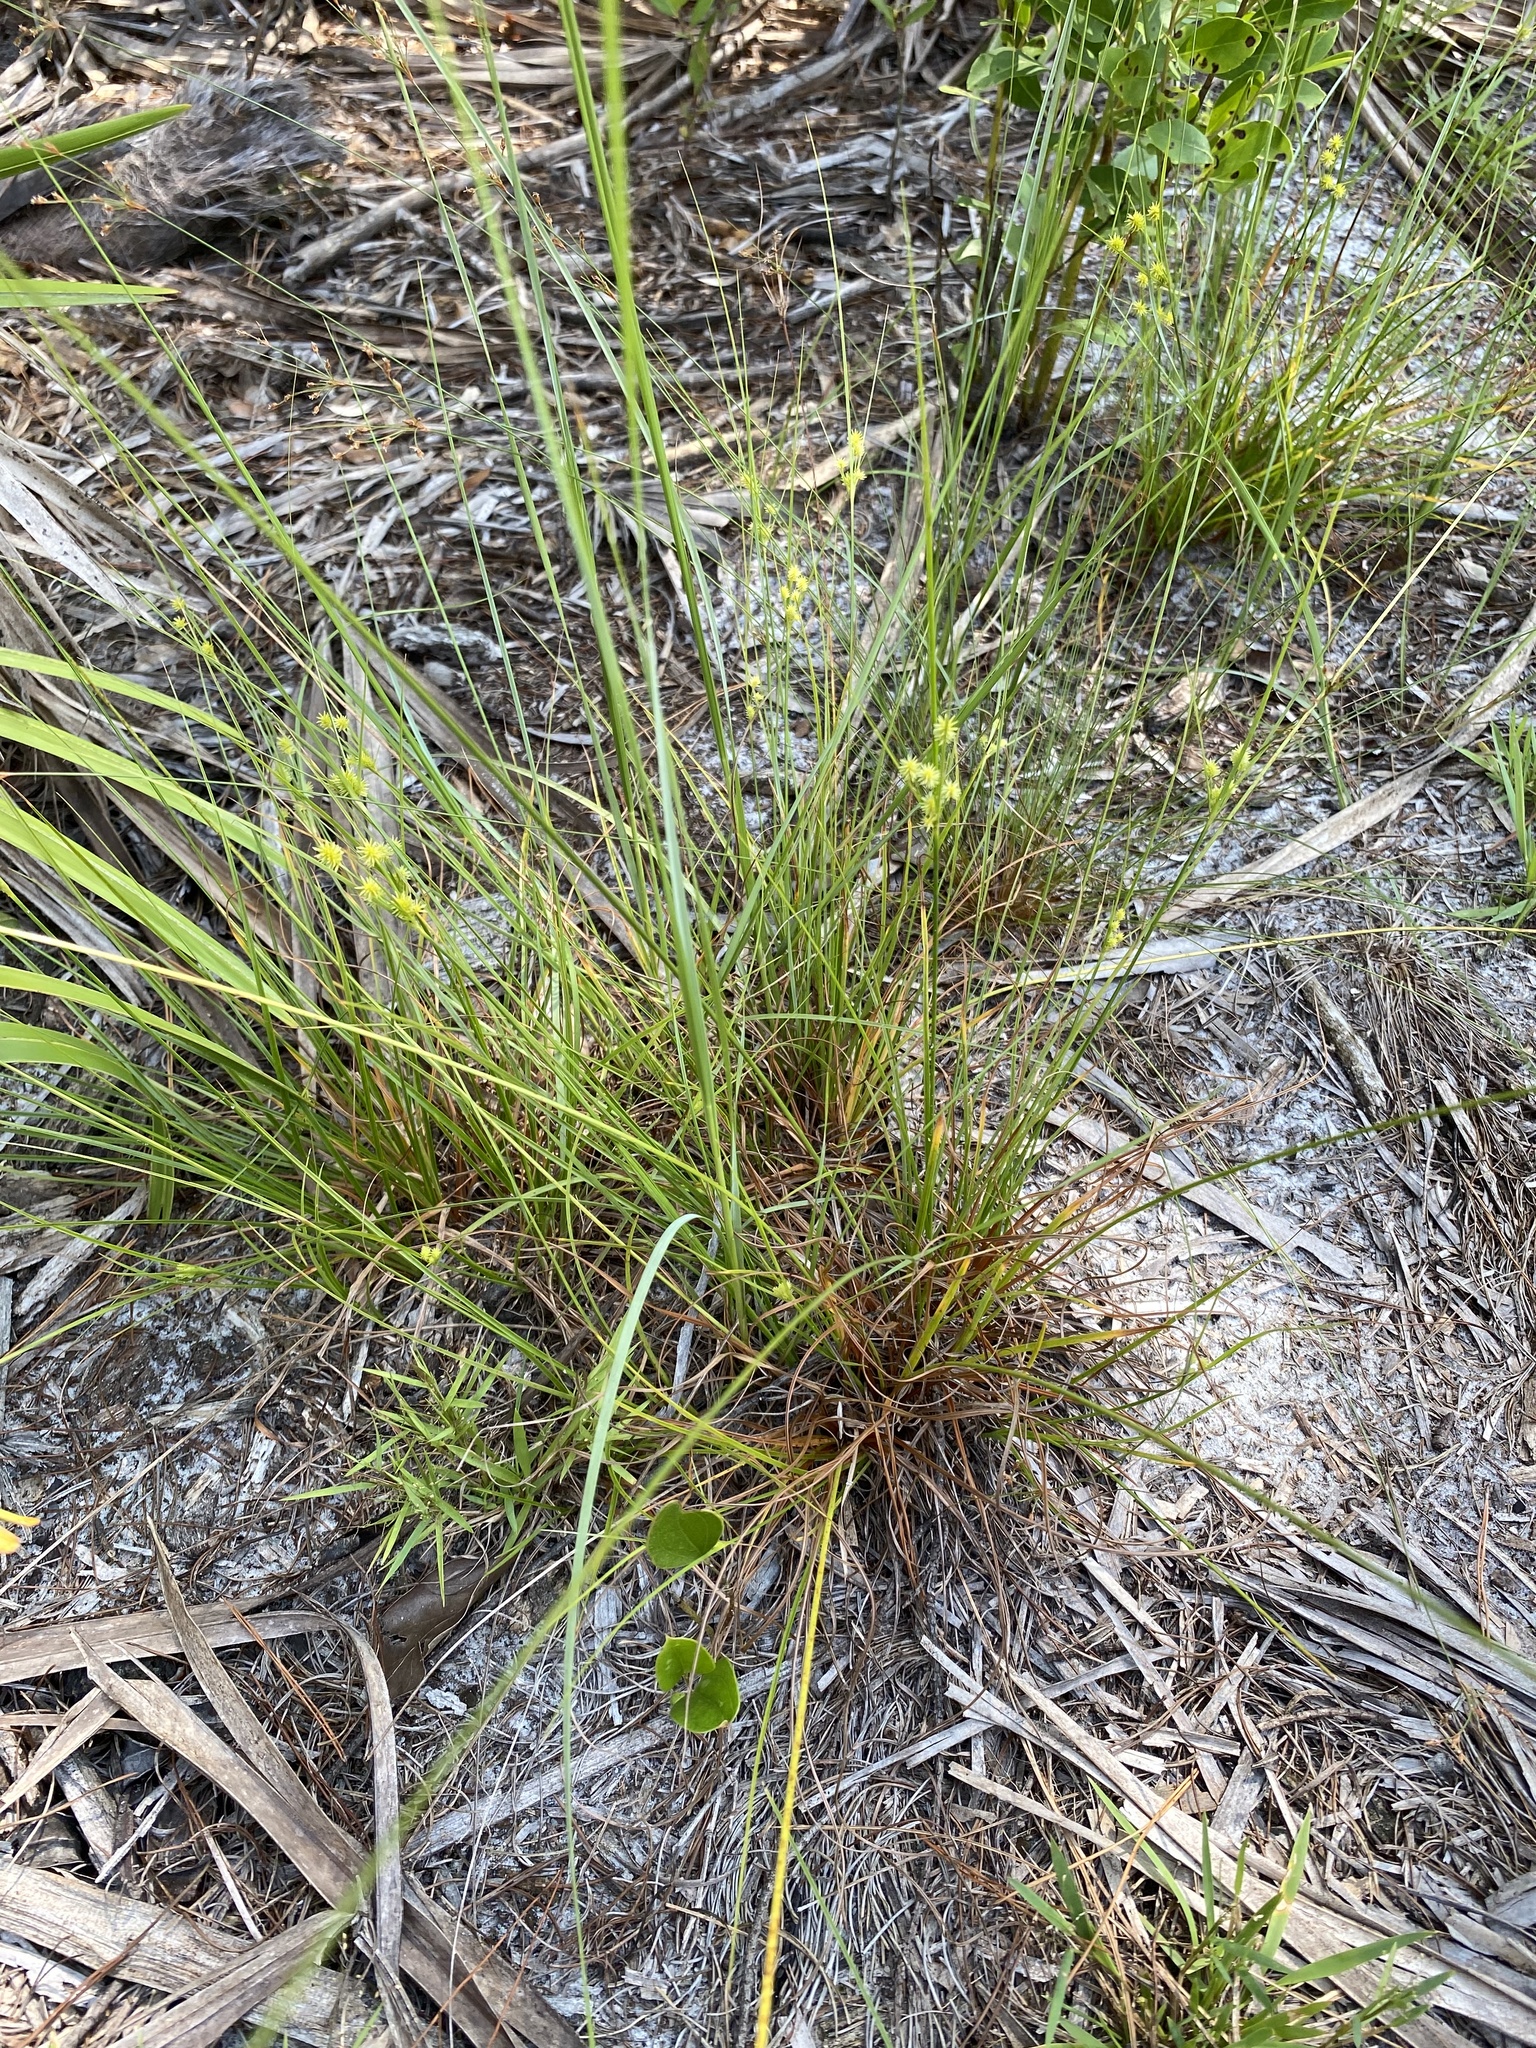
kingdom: Plantae
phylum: Tracheophyta
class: Liliopsida
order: Poales
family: Cyperaceae
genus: Cyperus
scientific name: Cyperus retrorsus
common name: Pinebarren flat sedge
